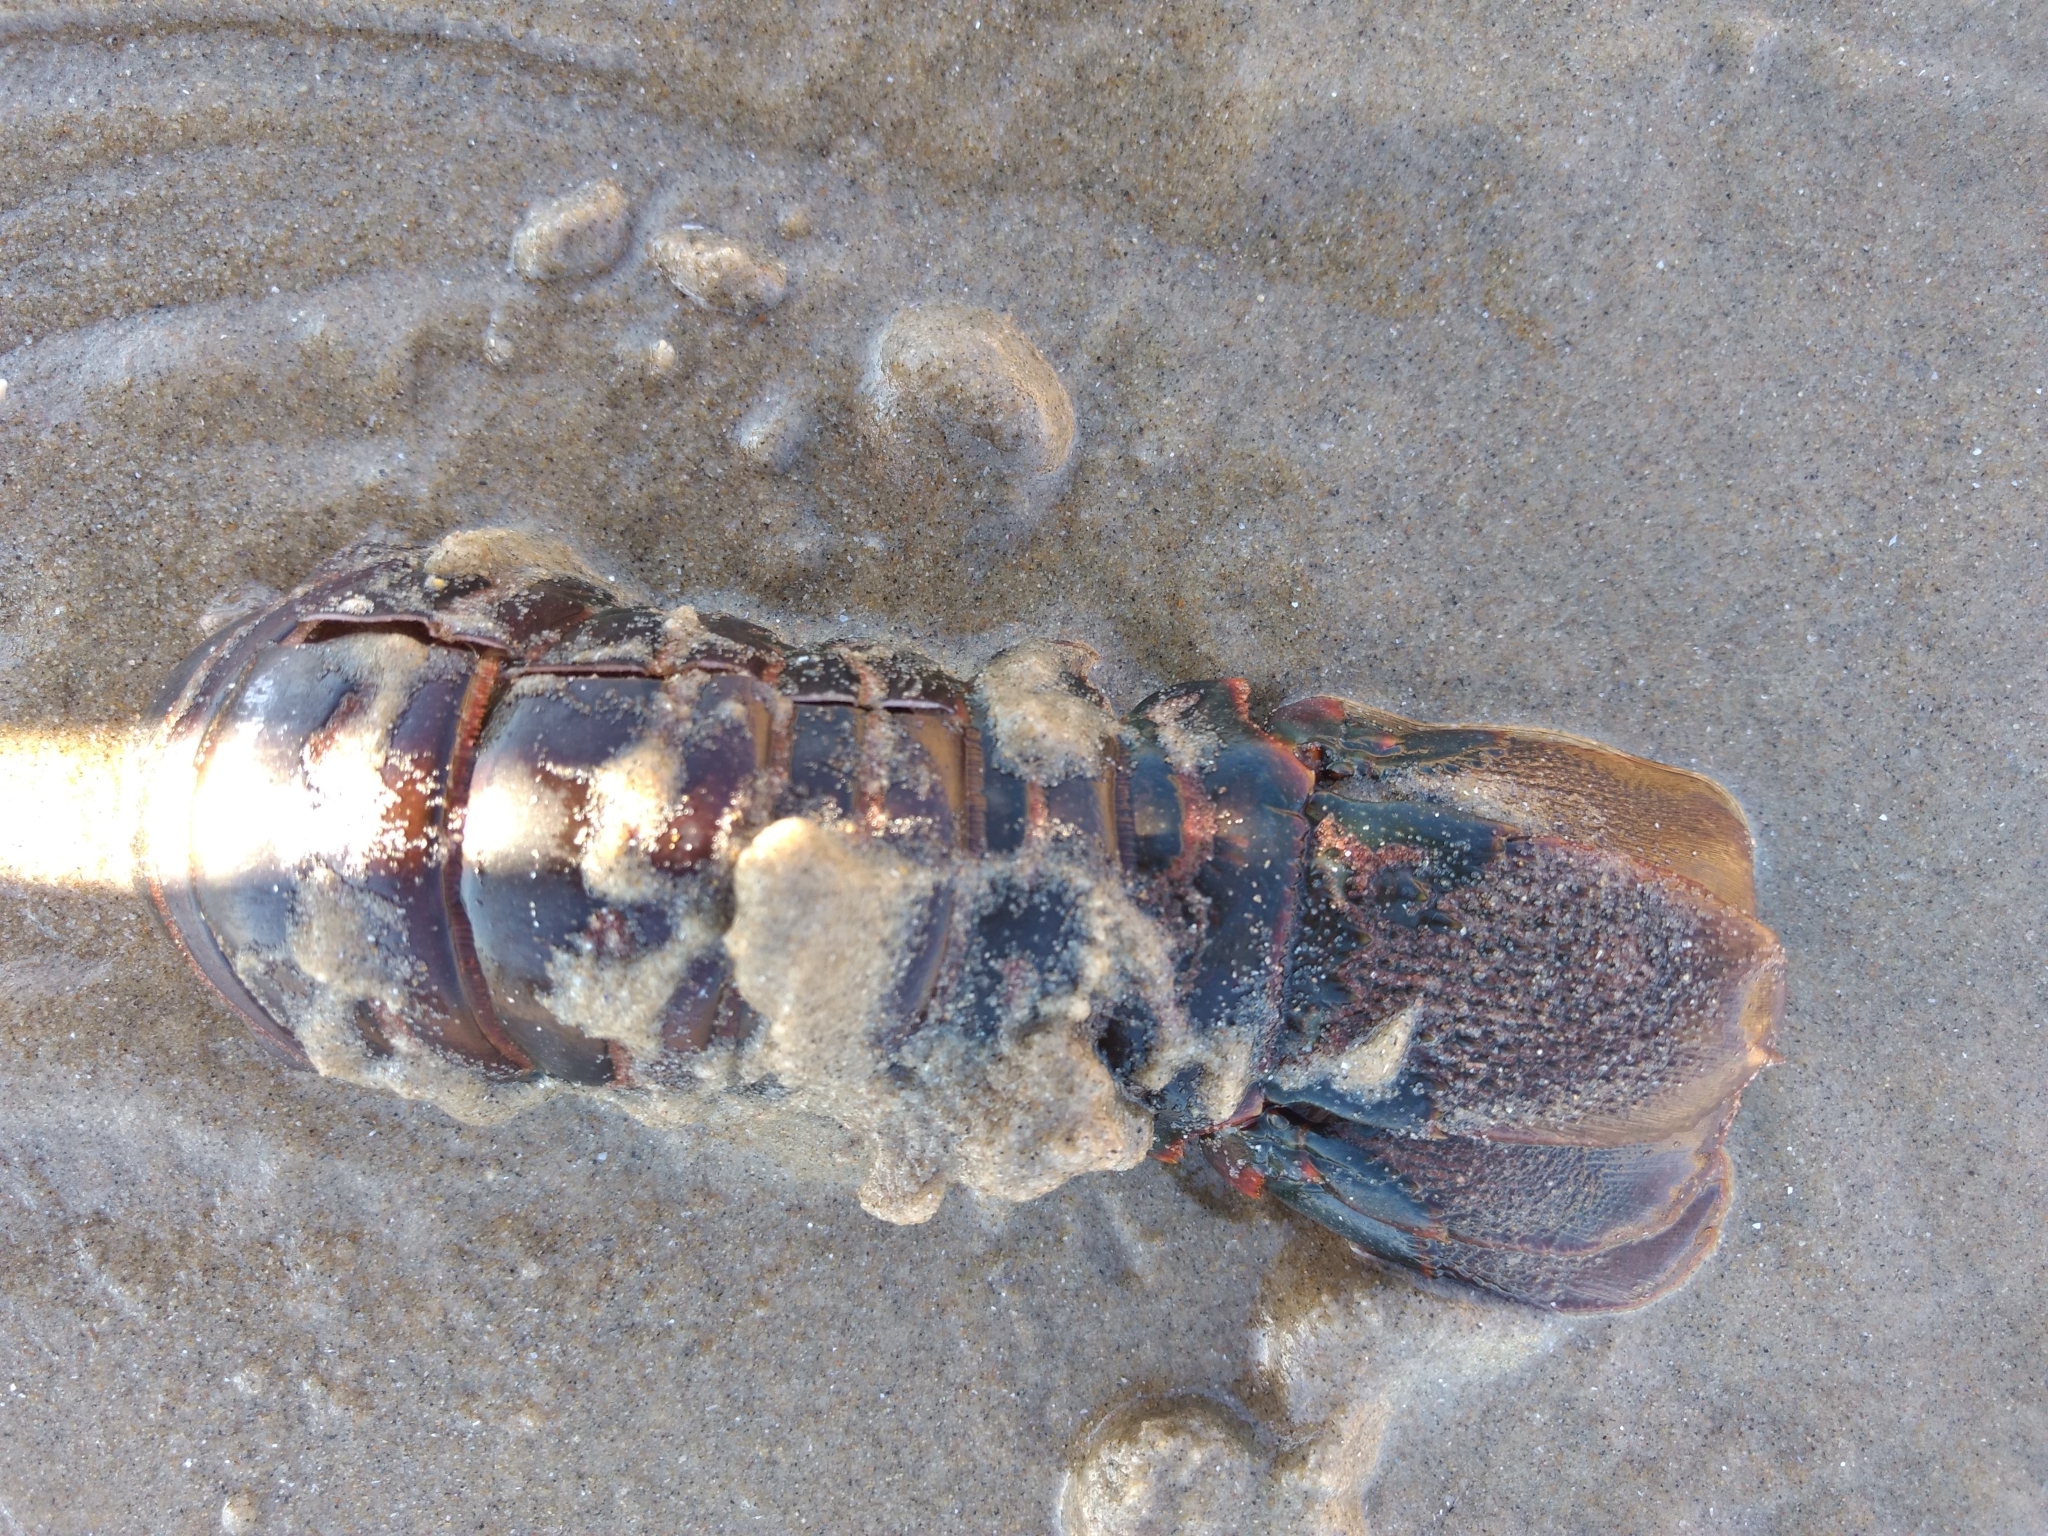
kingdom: Animalia
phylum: Arthropoda
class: Malacostraca
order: Decapoda
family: Palinuridae
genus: Panulirus
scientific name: Panulirus interruptus
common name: California spiny lobster
